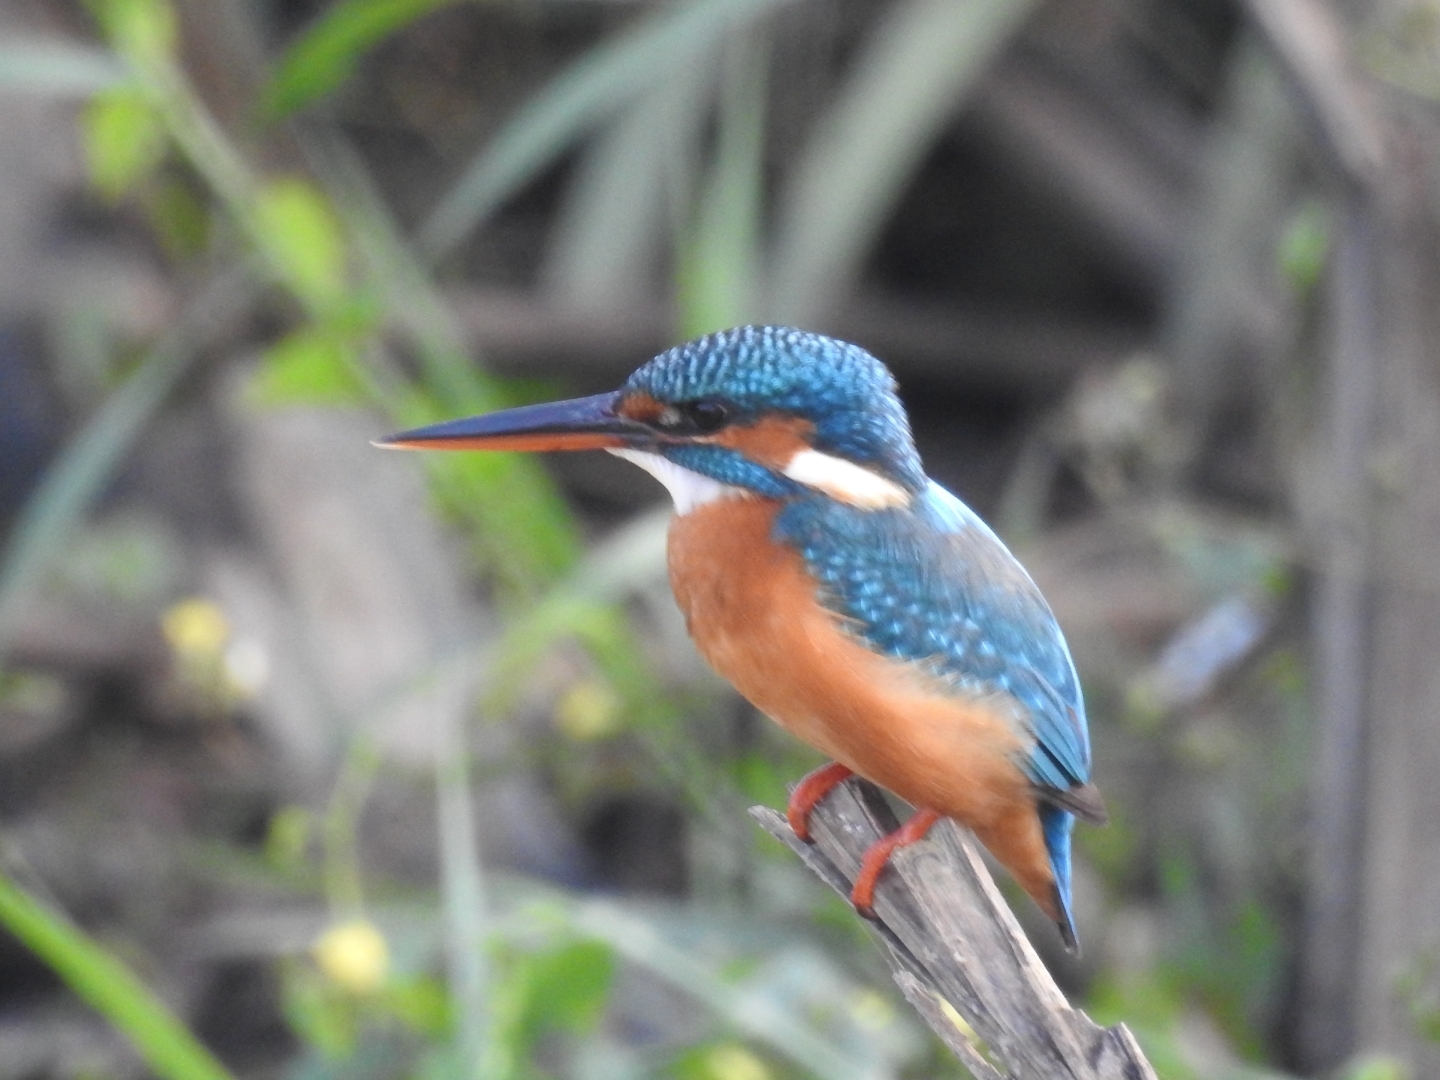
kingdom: Animalia
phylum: Chordata
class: Aves
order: Coraciiformes
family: Alcedinidae
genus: Alcedo
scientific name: Alcedo atthis
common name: Common kingfisher
